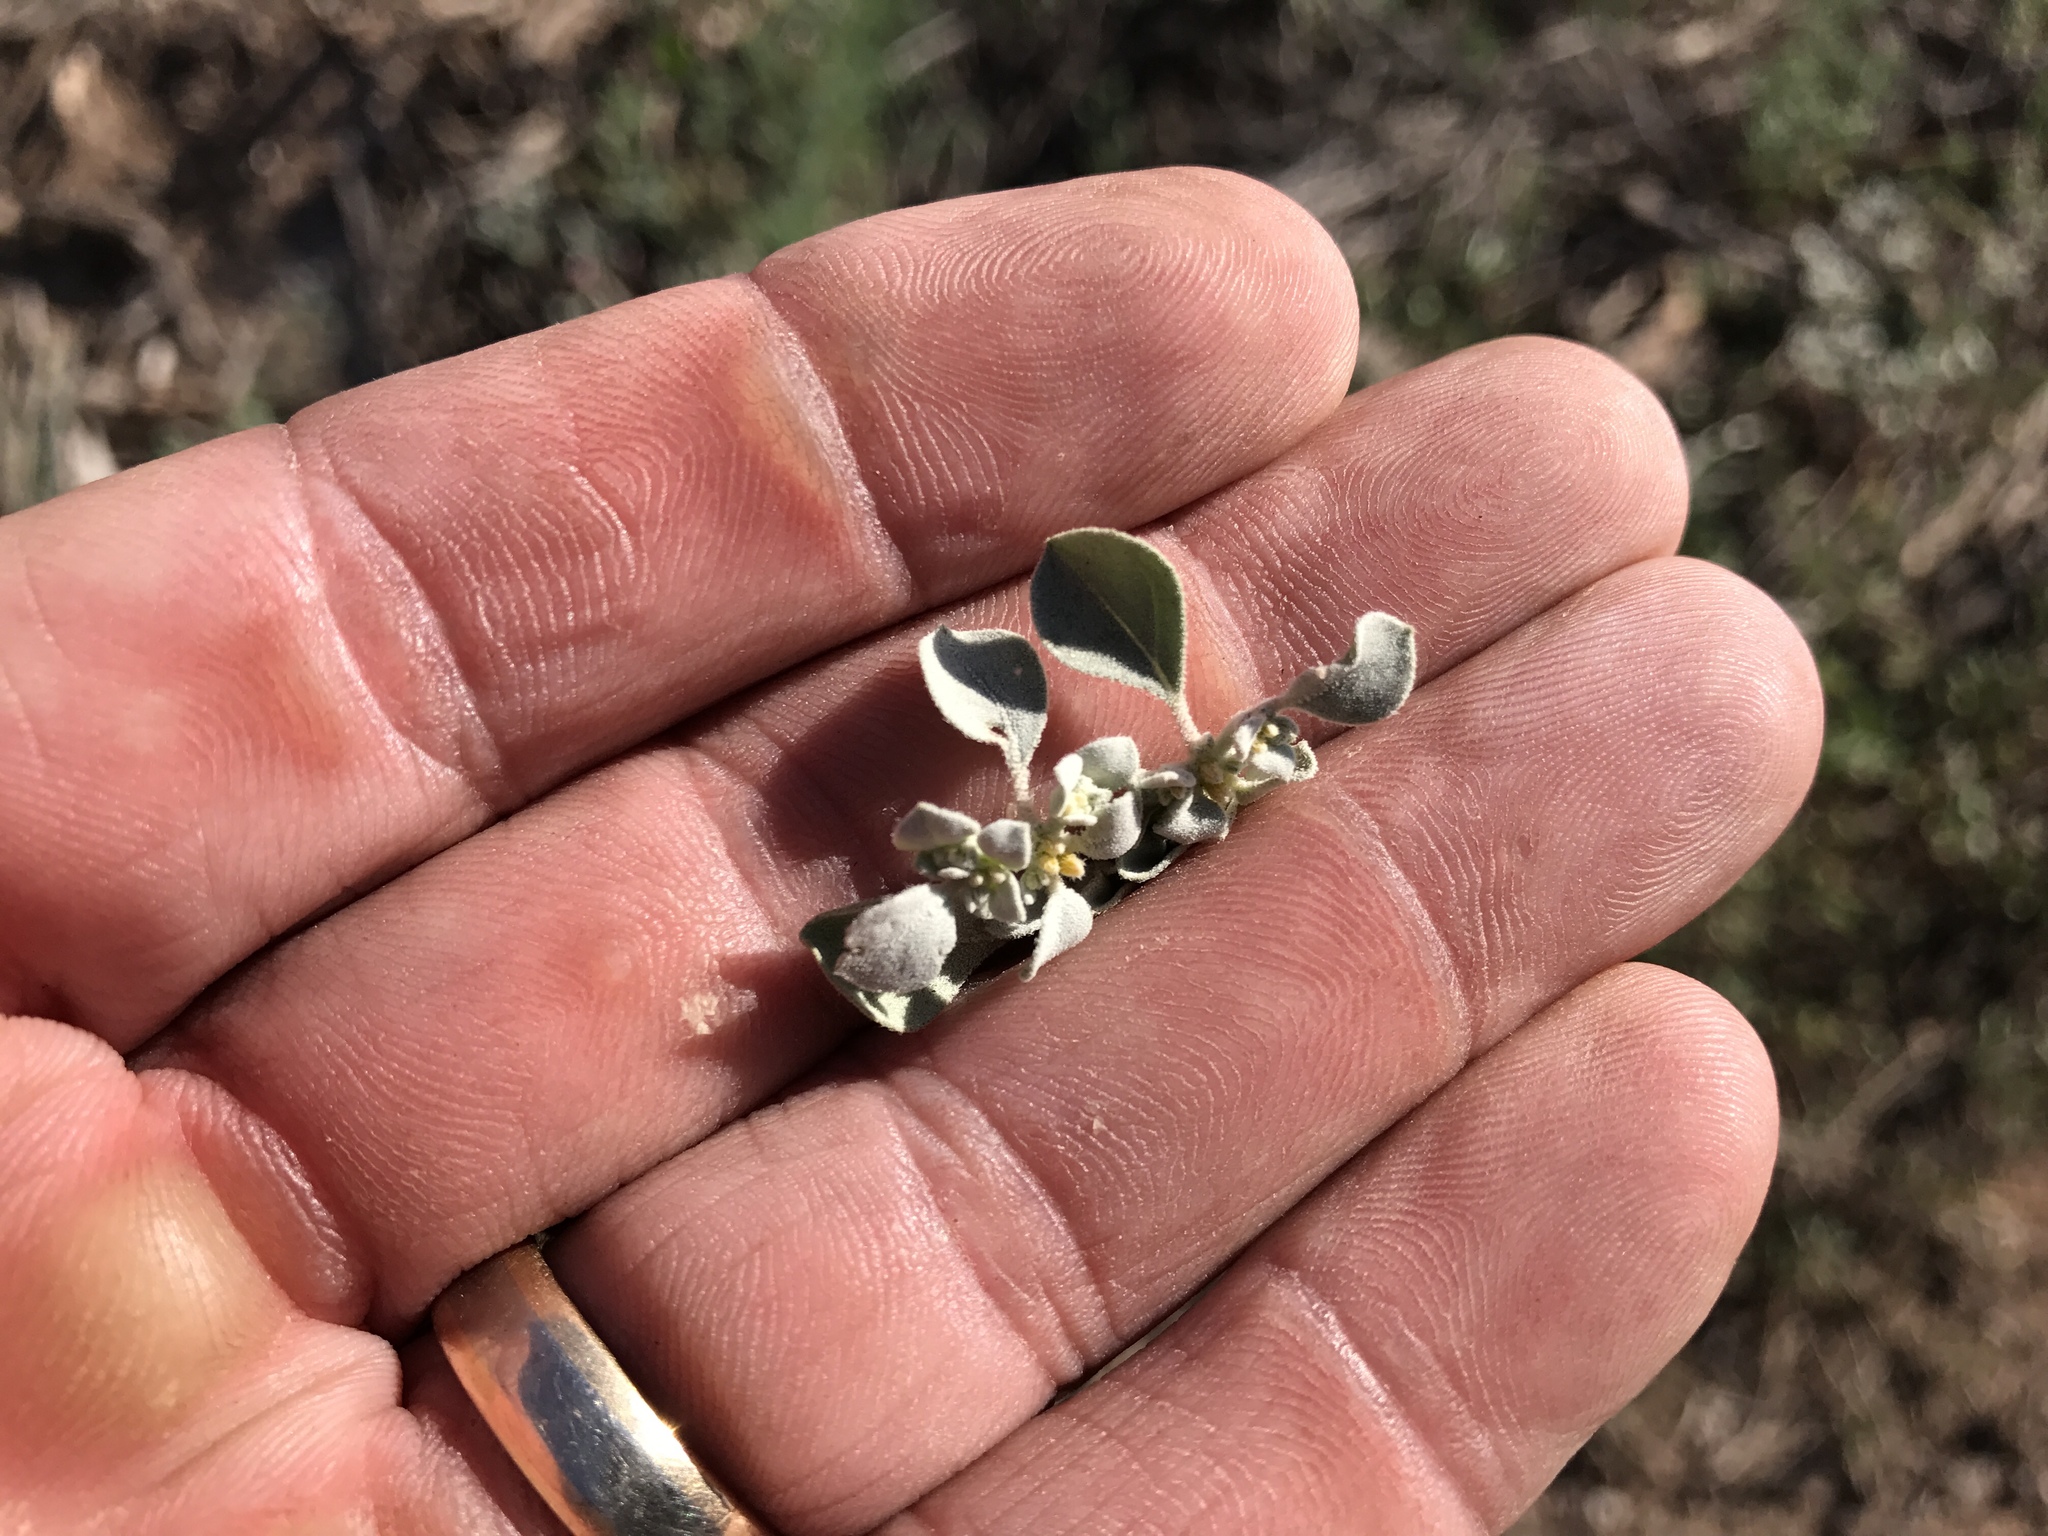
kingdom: Plantae
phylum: Tracheophyta
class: Magnoliopsida
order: Caryophyllales
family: Amaranthaceae
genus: Tidestromia
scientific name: Tidestromia lanuginosa
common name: Woolly tidestromia
